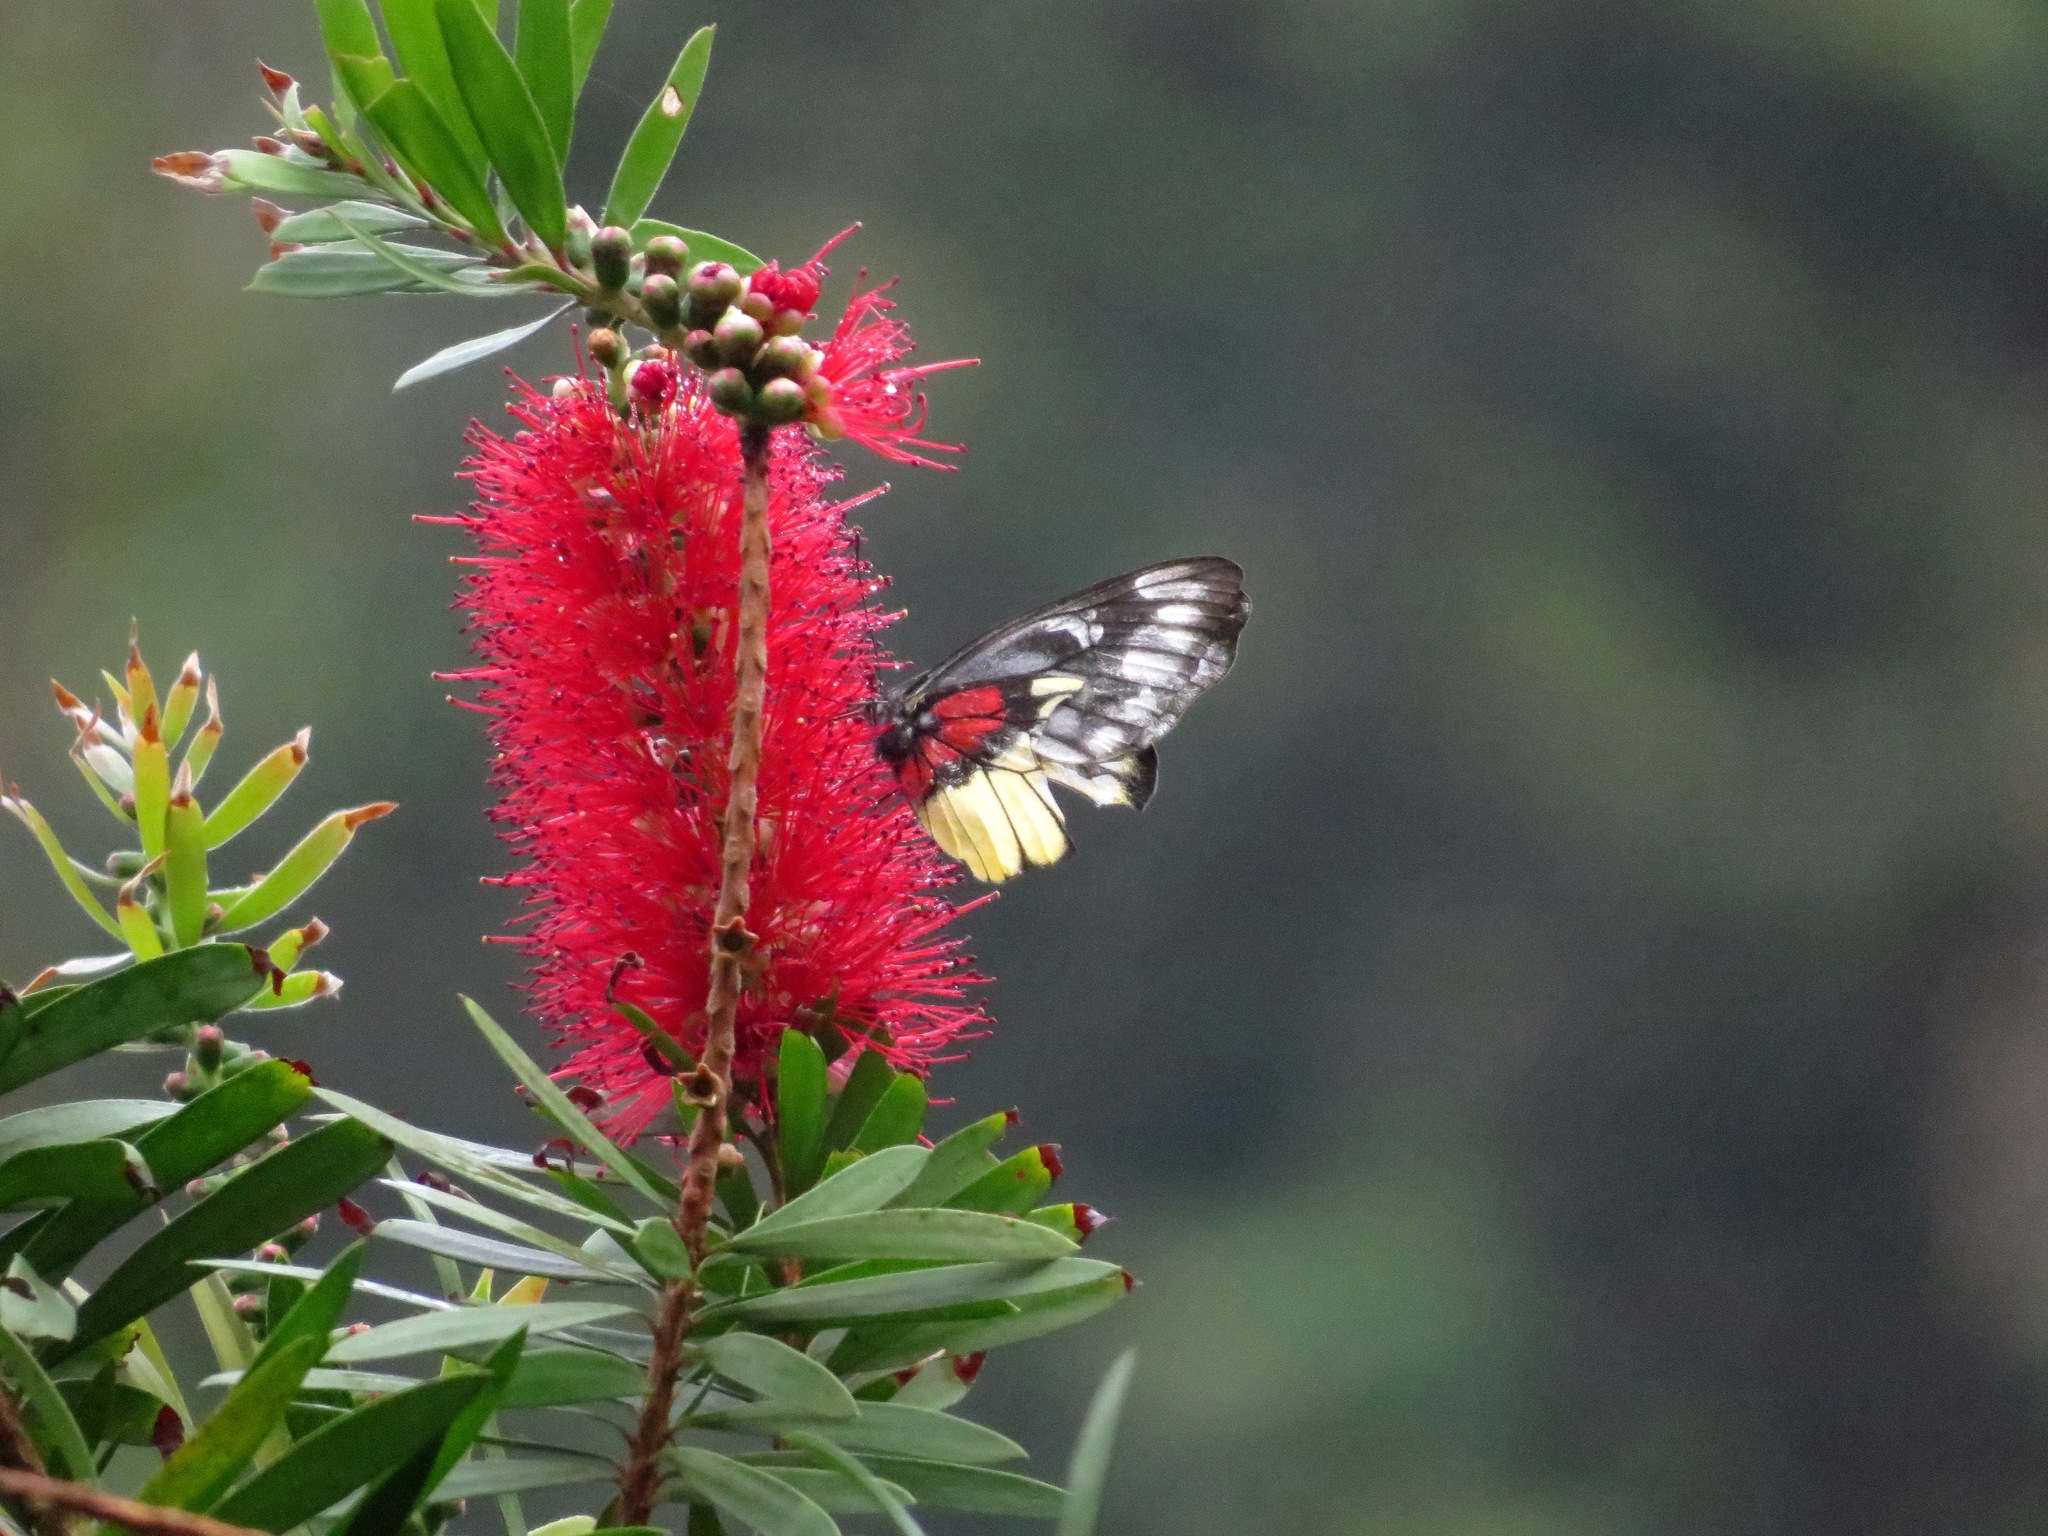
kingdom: Animalia
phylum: Arthropoda
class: Insecta
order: Lepidoptera
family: Pieridae
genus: Delias
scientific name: Delias ninus
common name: Malayan jezebel
